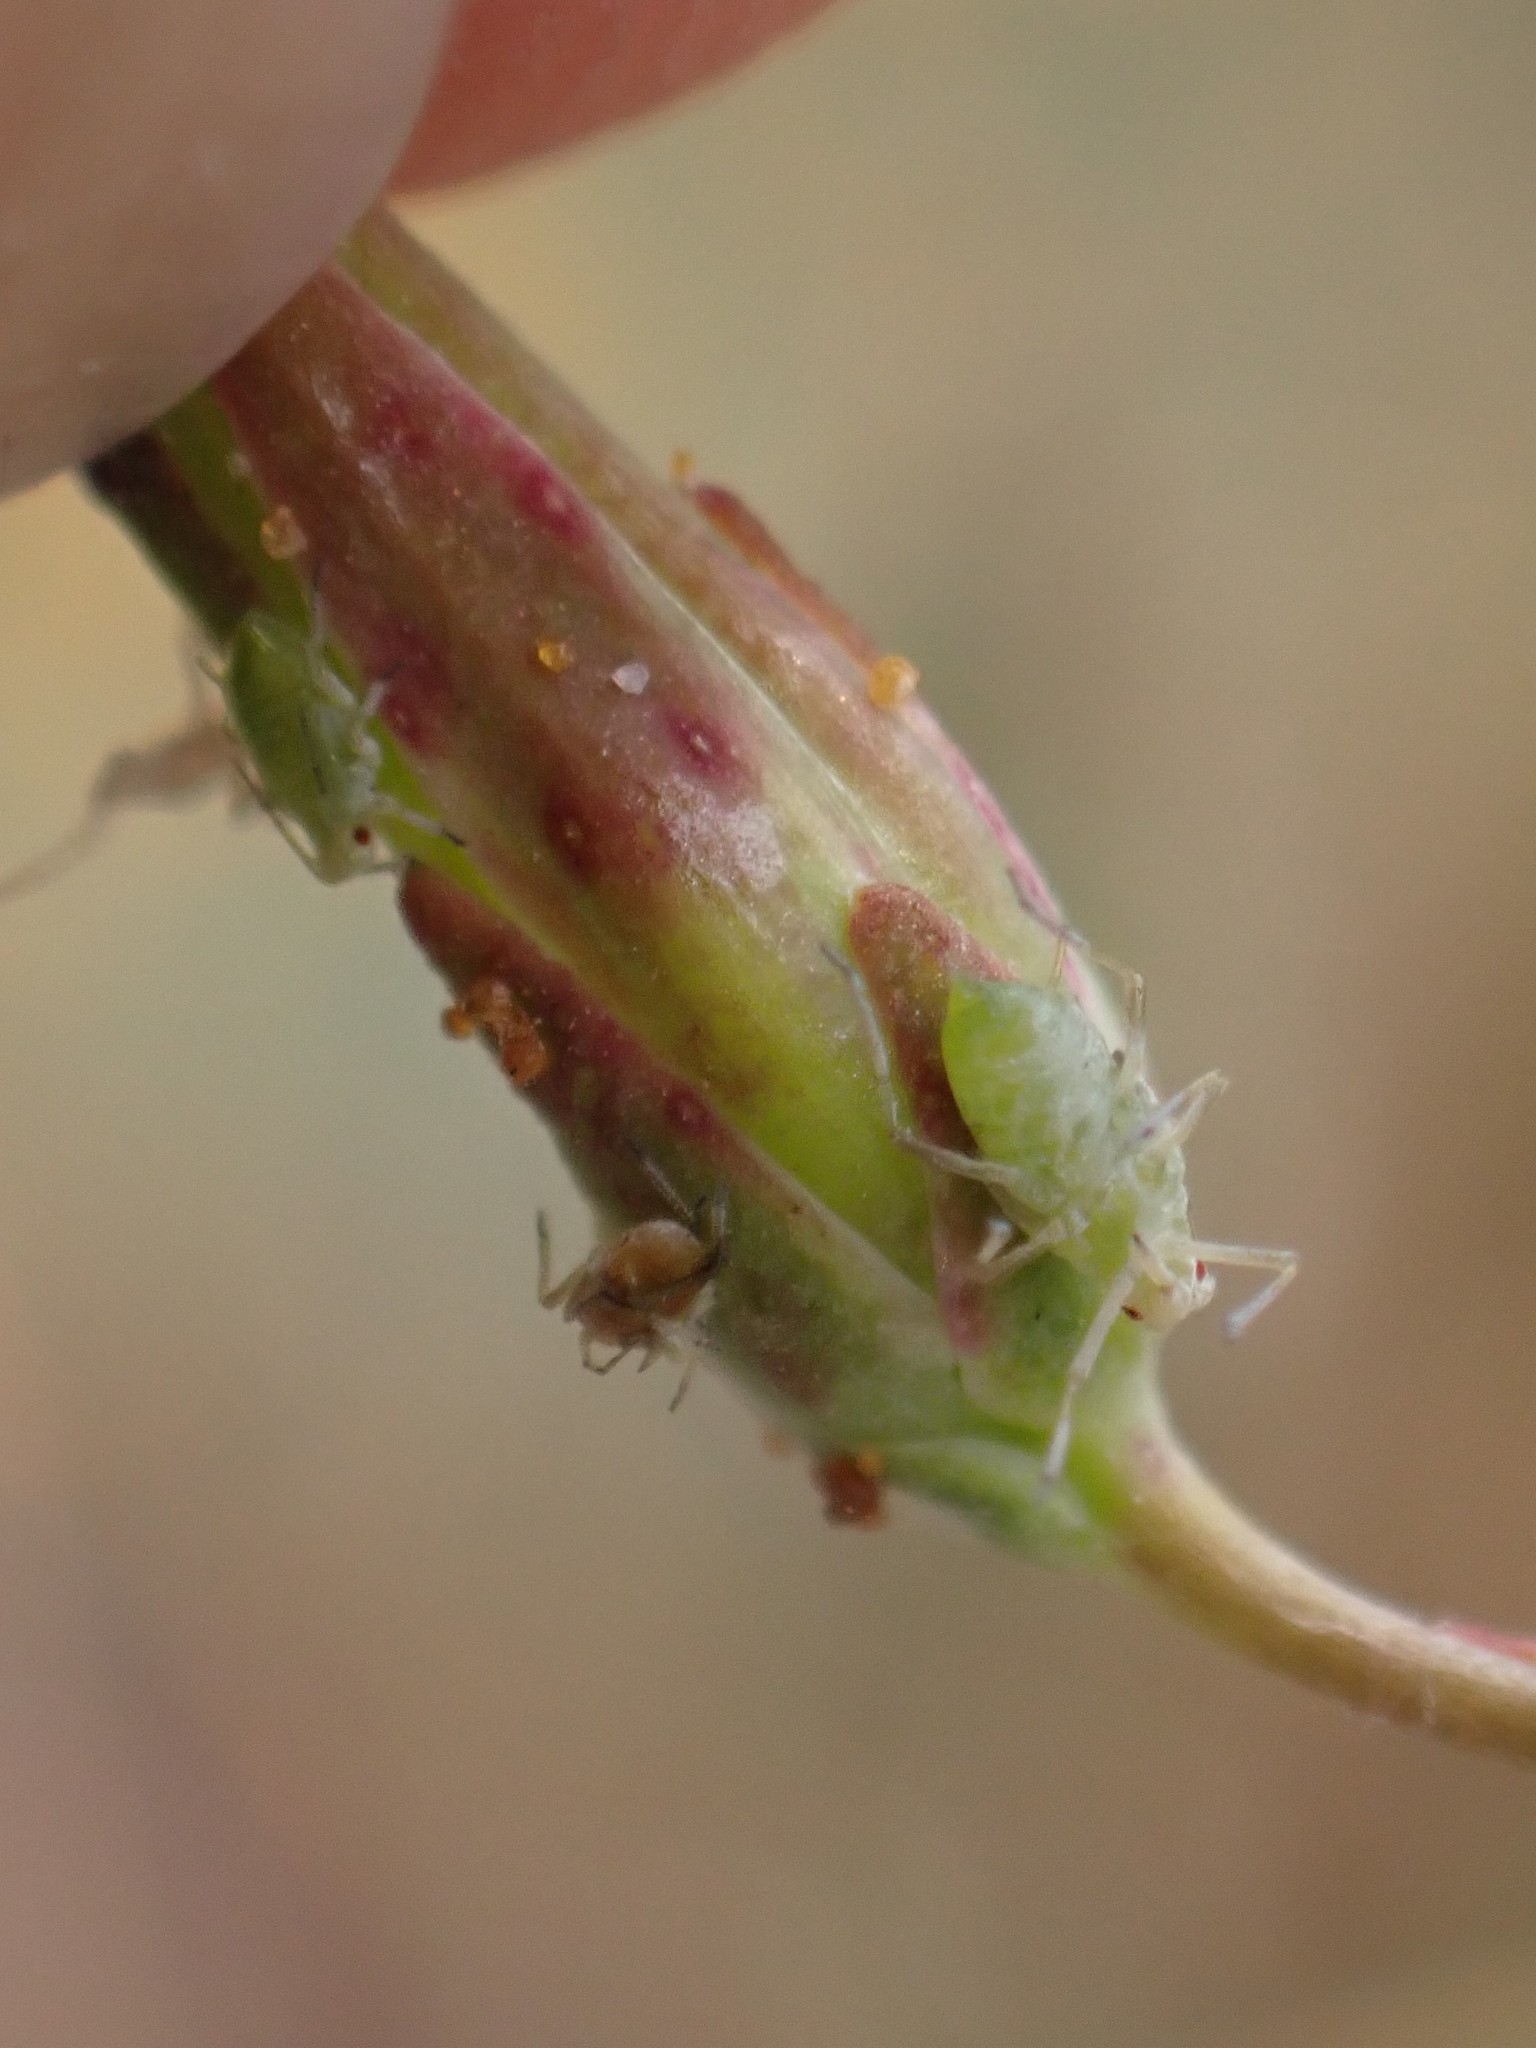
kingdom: Animalia
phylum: Arthropoda
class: Insecta
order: Hemiptera
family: Aphididae
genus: Acyrthosiphon
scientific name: Acyrthosiphon lactucae
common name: Aphid
